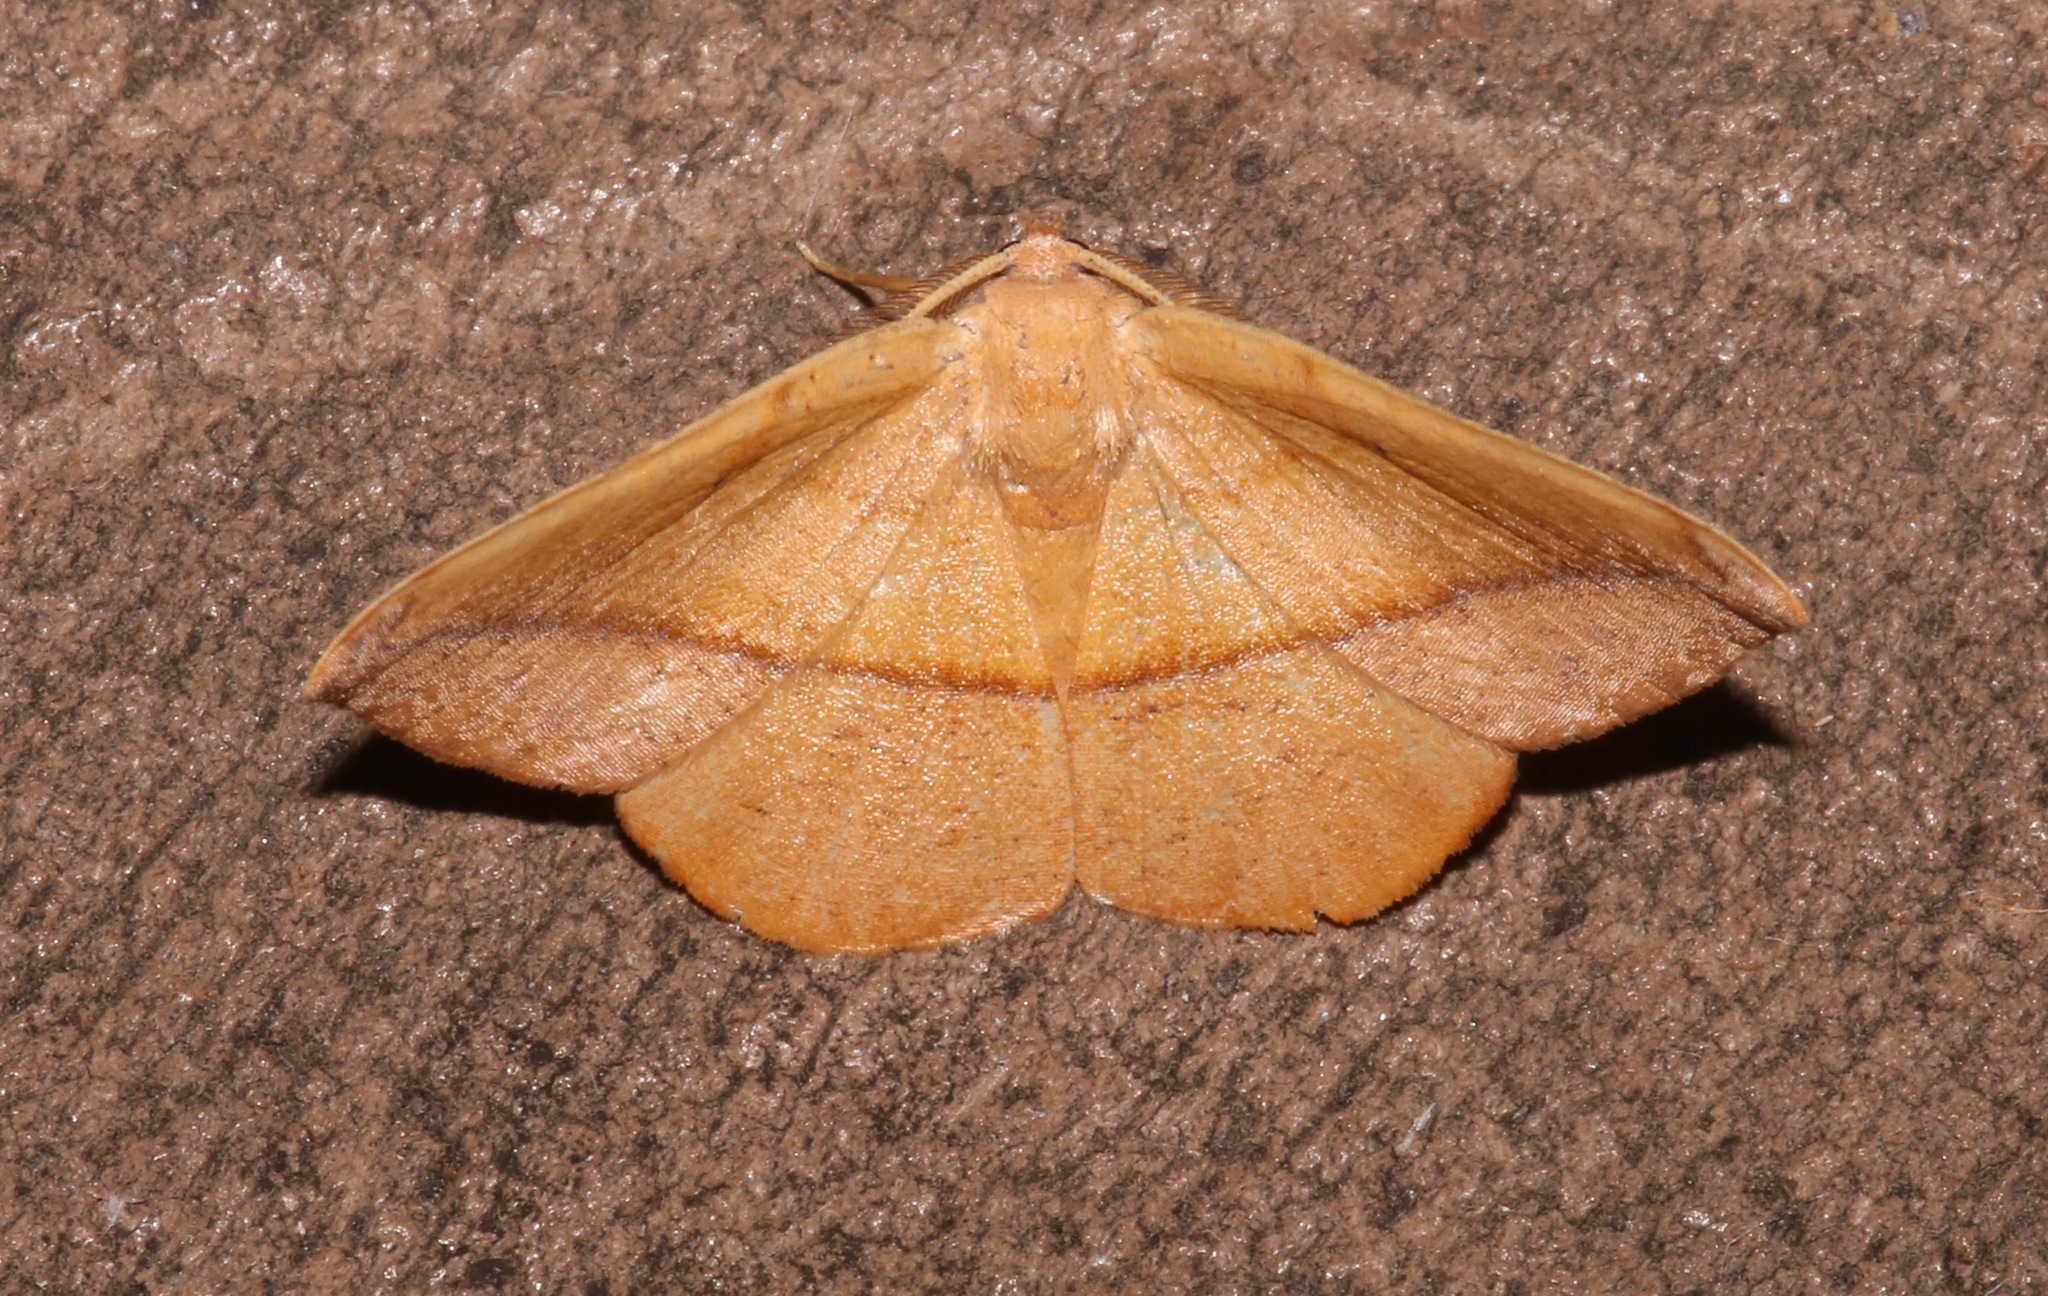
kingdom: Animalia
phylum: Arthropoda
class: Insecta
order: Lepidoptera
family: Geometridae
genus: Patalene
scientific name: Patalene olyzonaria
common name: Juniper geometer moth
